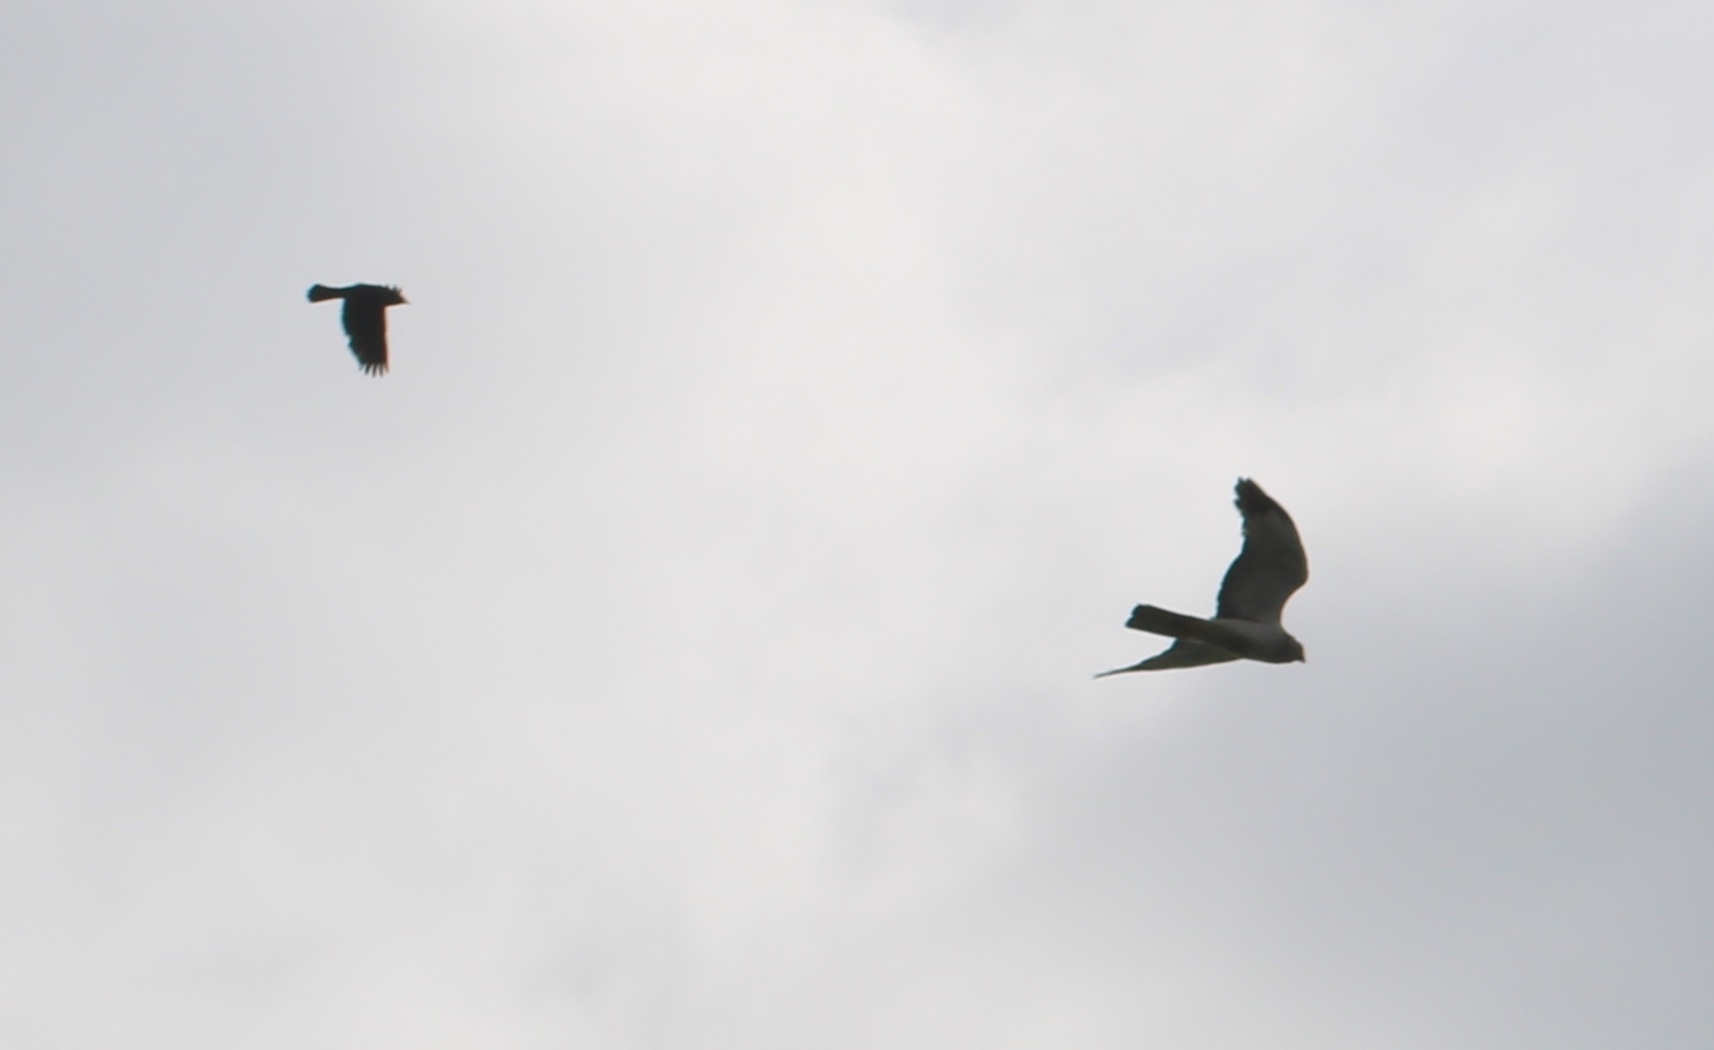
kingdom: Animalia
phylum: Chordata
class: Aves
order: Accipitriformes
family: Accipitridae
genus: Circus
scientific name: Circus cyaneus
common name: Hen harrier
